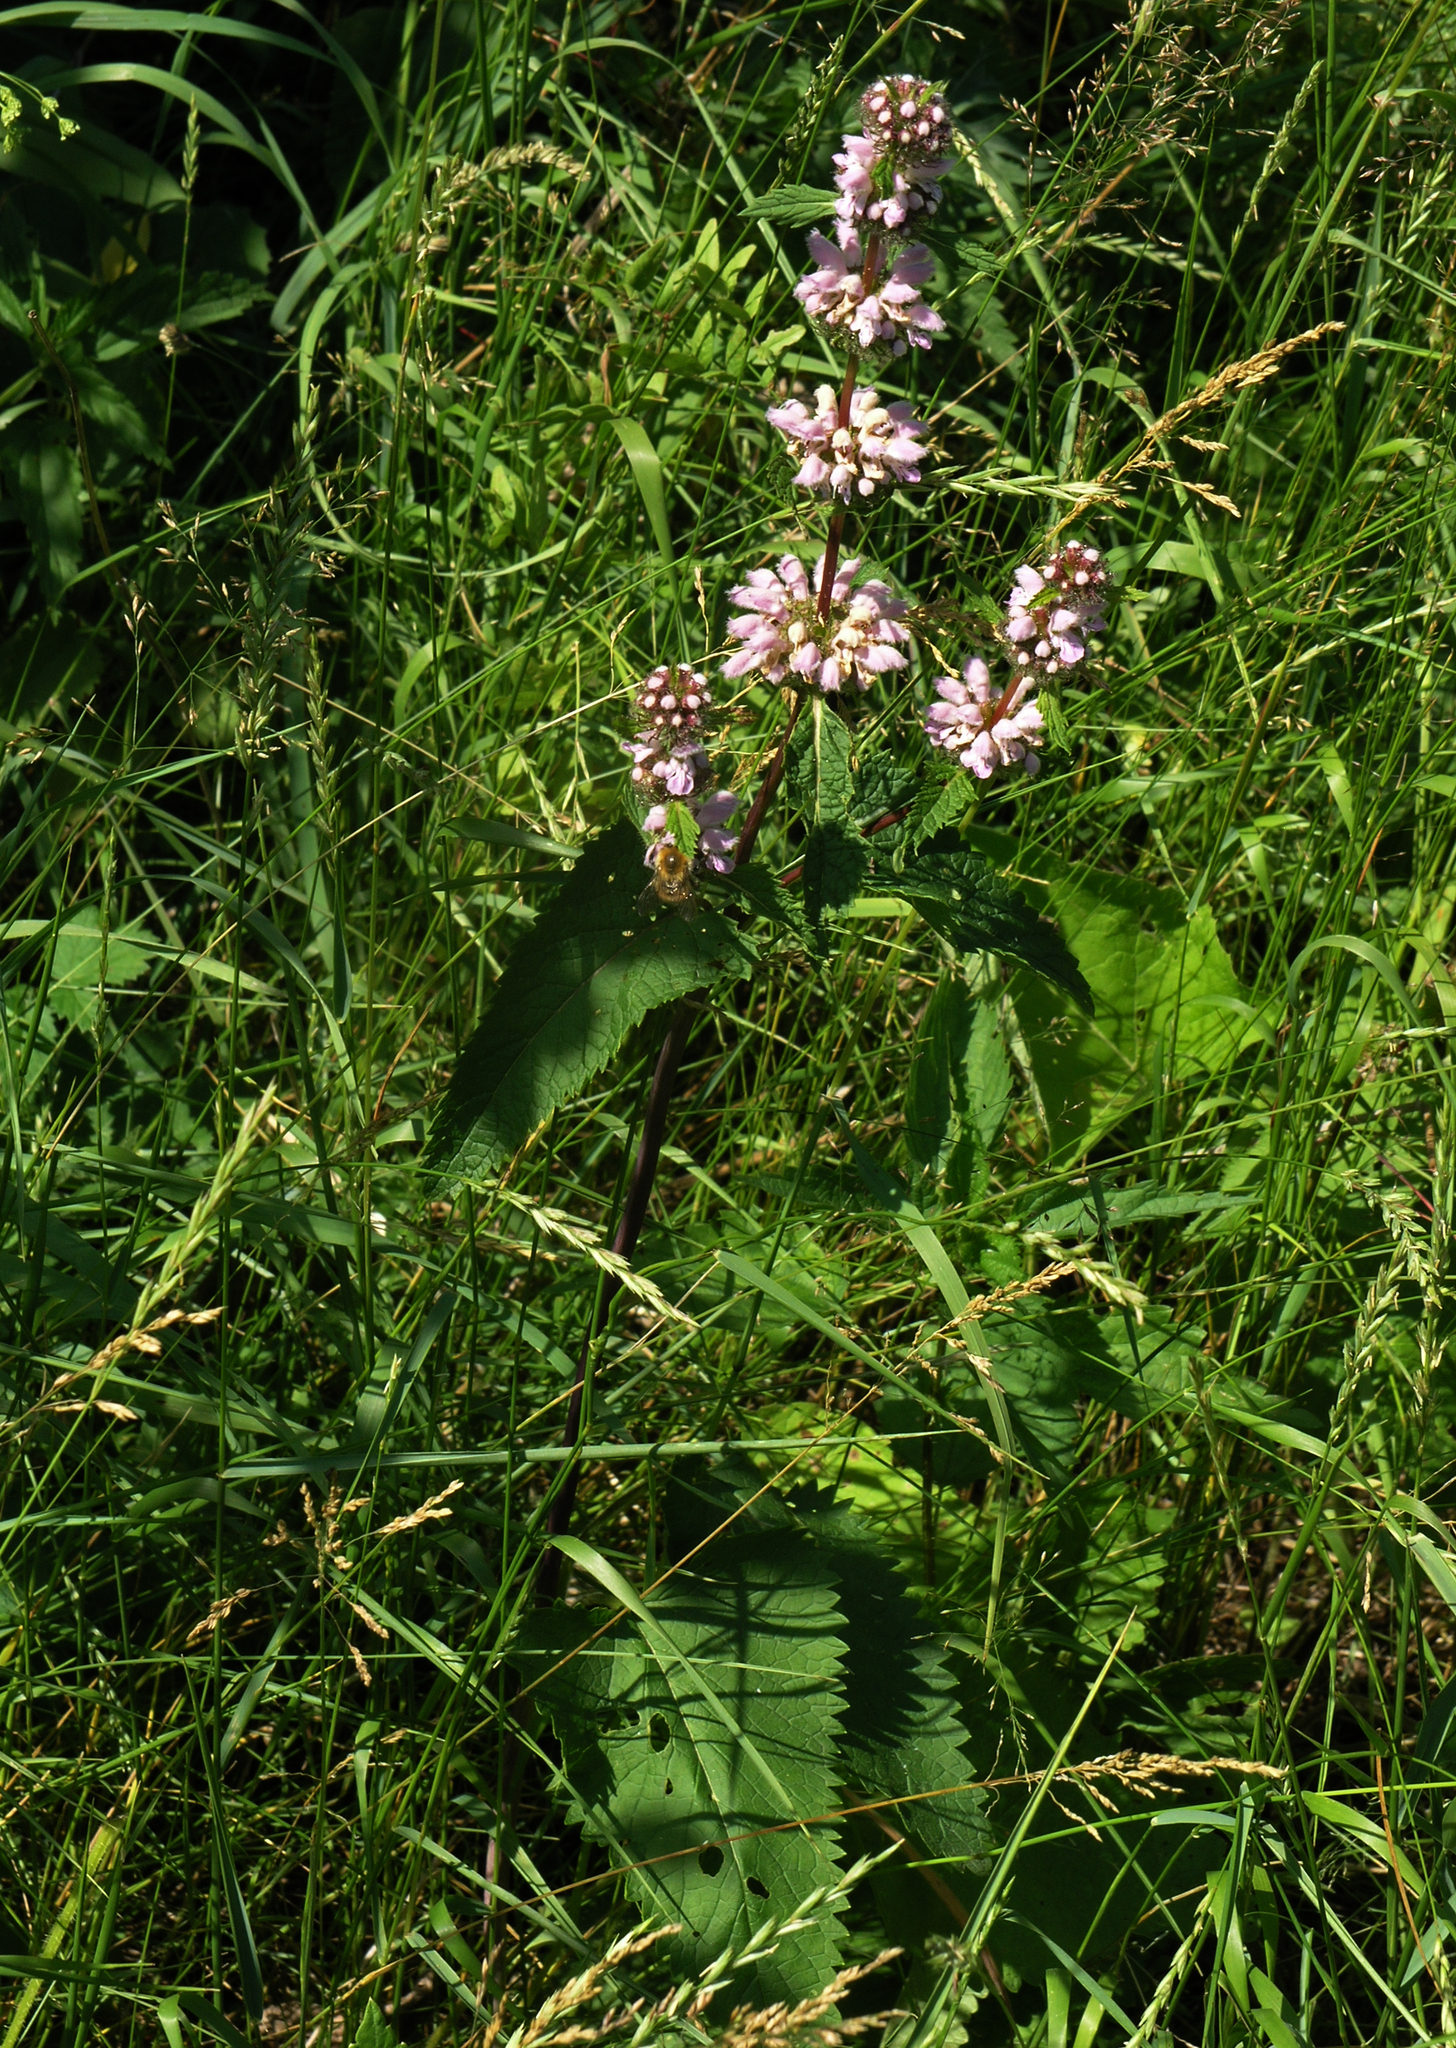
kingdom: Plantae
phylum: Tracheophyta
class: Magnoliopsida
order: Lamiales
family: Lamiaceae
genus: Phlomoides
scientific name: Phlomoides tuberosa
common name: Tuberous jerusalem sage
